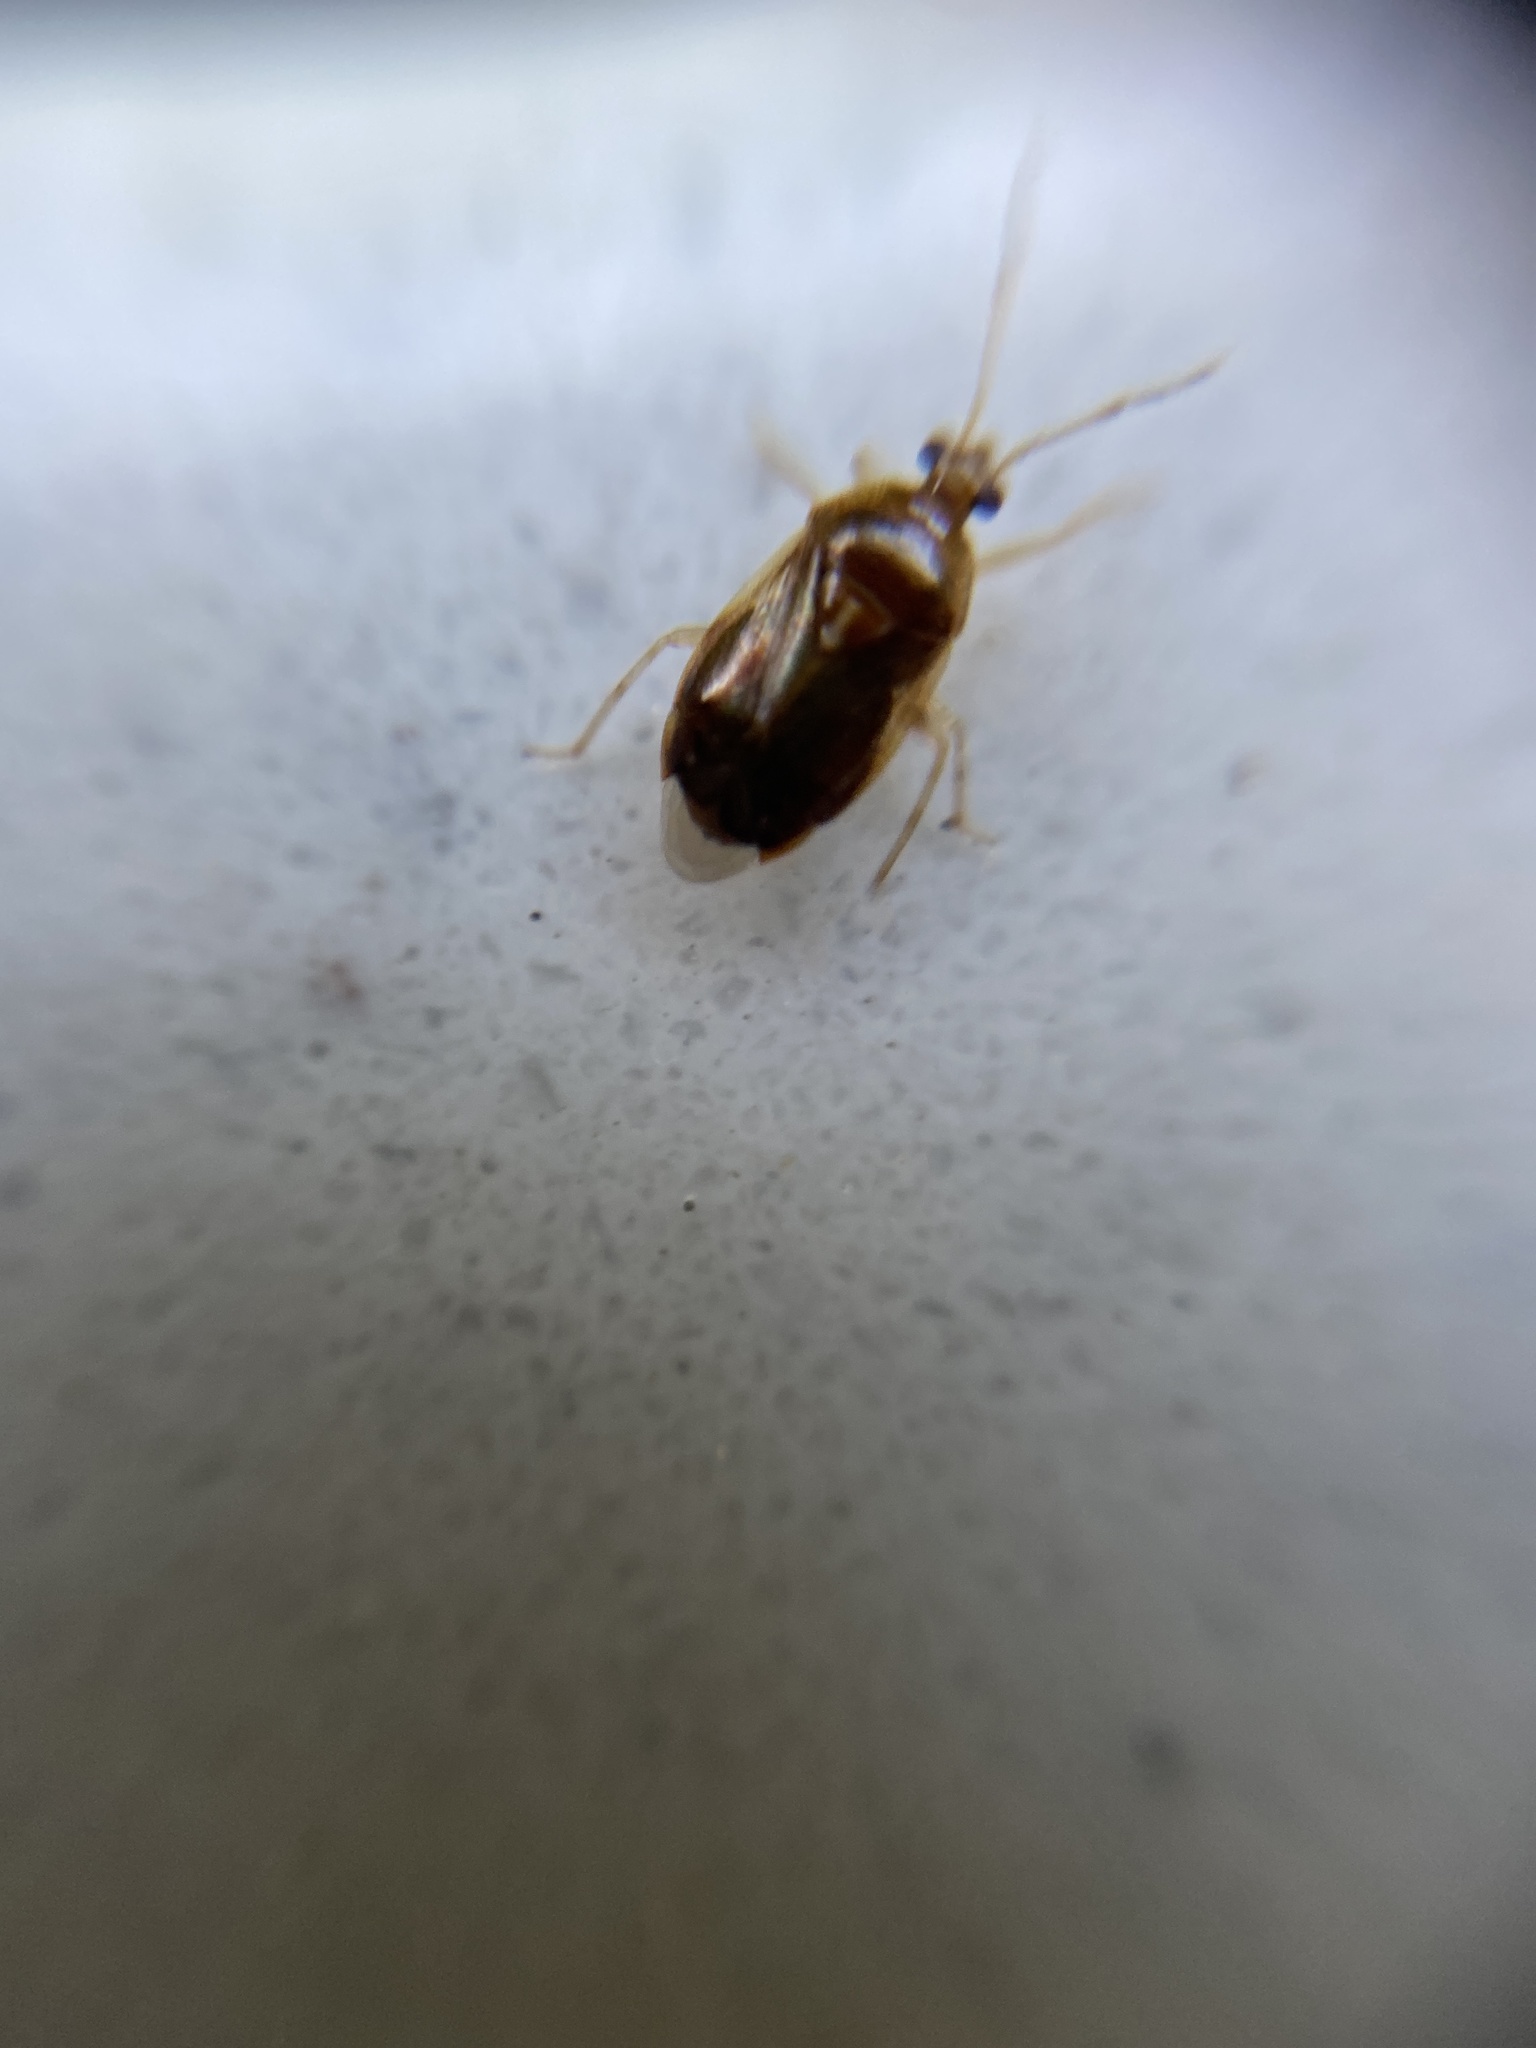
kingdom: Animalia
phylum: Arthropoda
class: Insecta
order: Hemiptera
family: Miridae
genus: Deraeocoris
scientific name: Deraeocoris lutescens
